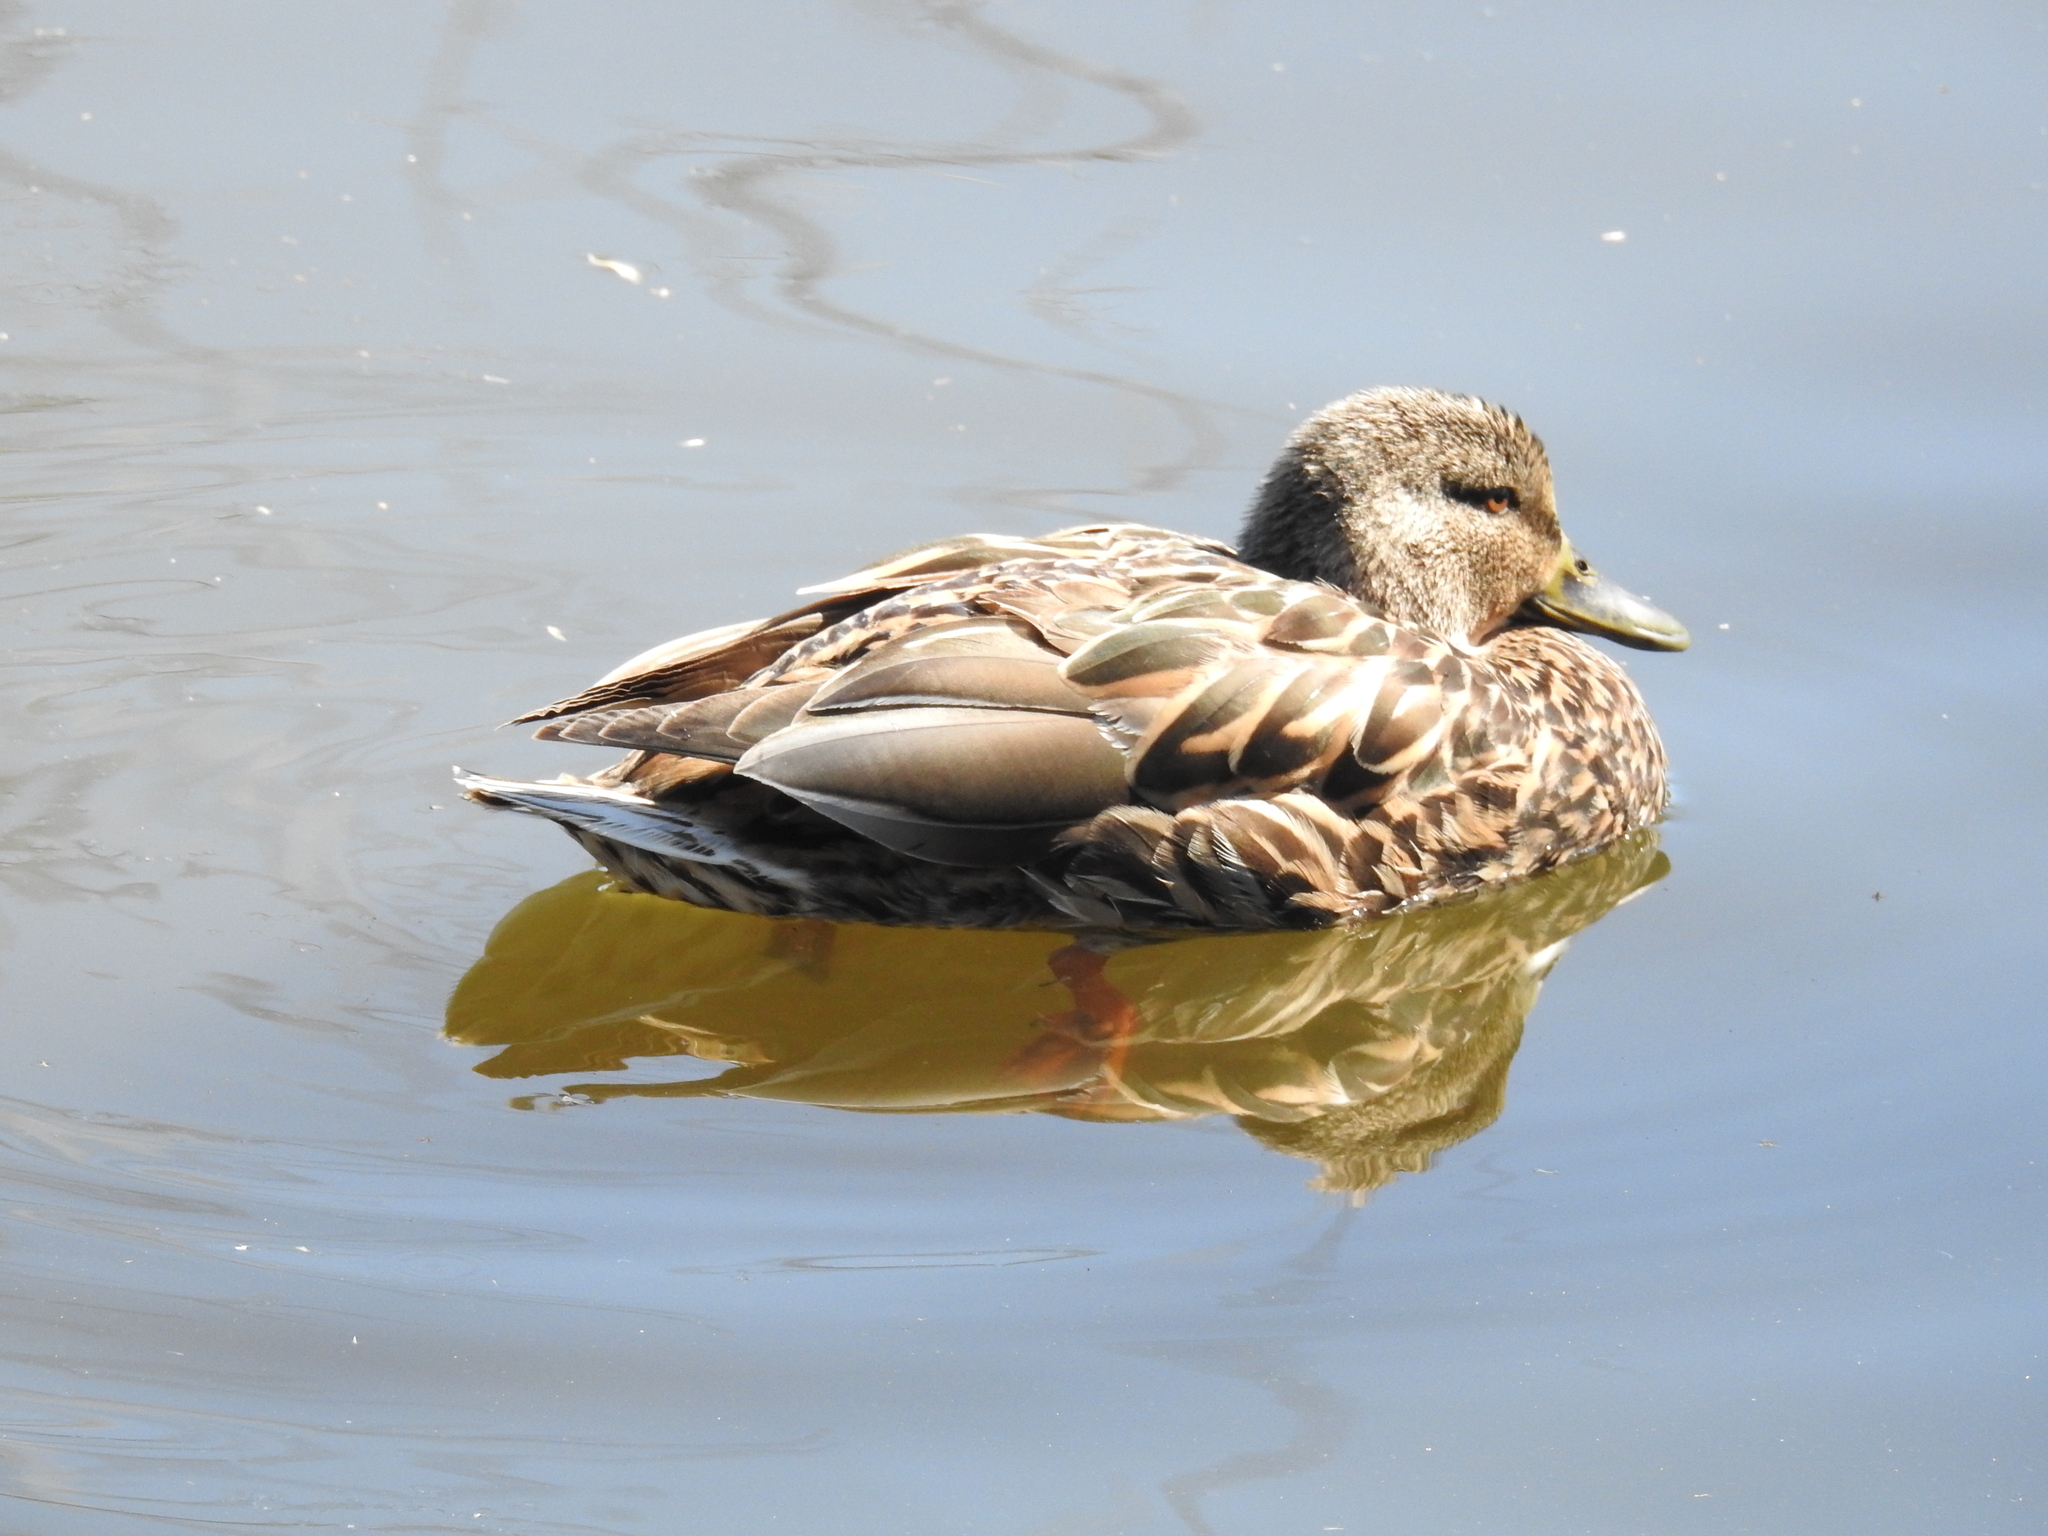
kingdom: Animalia
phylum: Chordata
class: Aves
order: Anseriformes
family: Anatidae
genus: Anas
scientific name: Anas platyrhynchos
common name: Mallard
